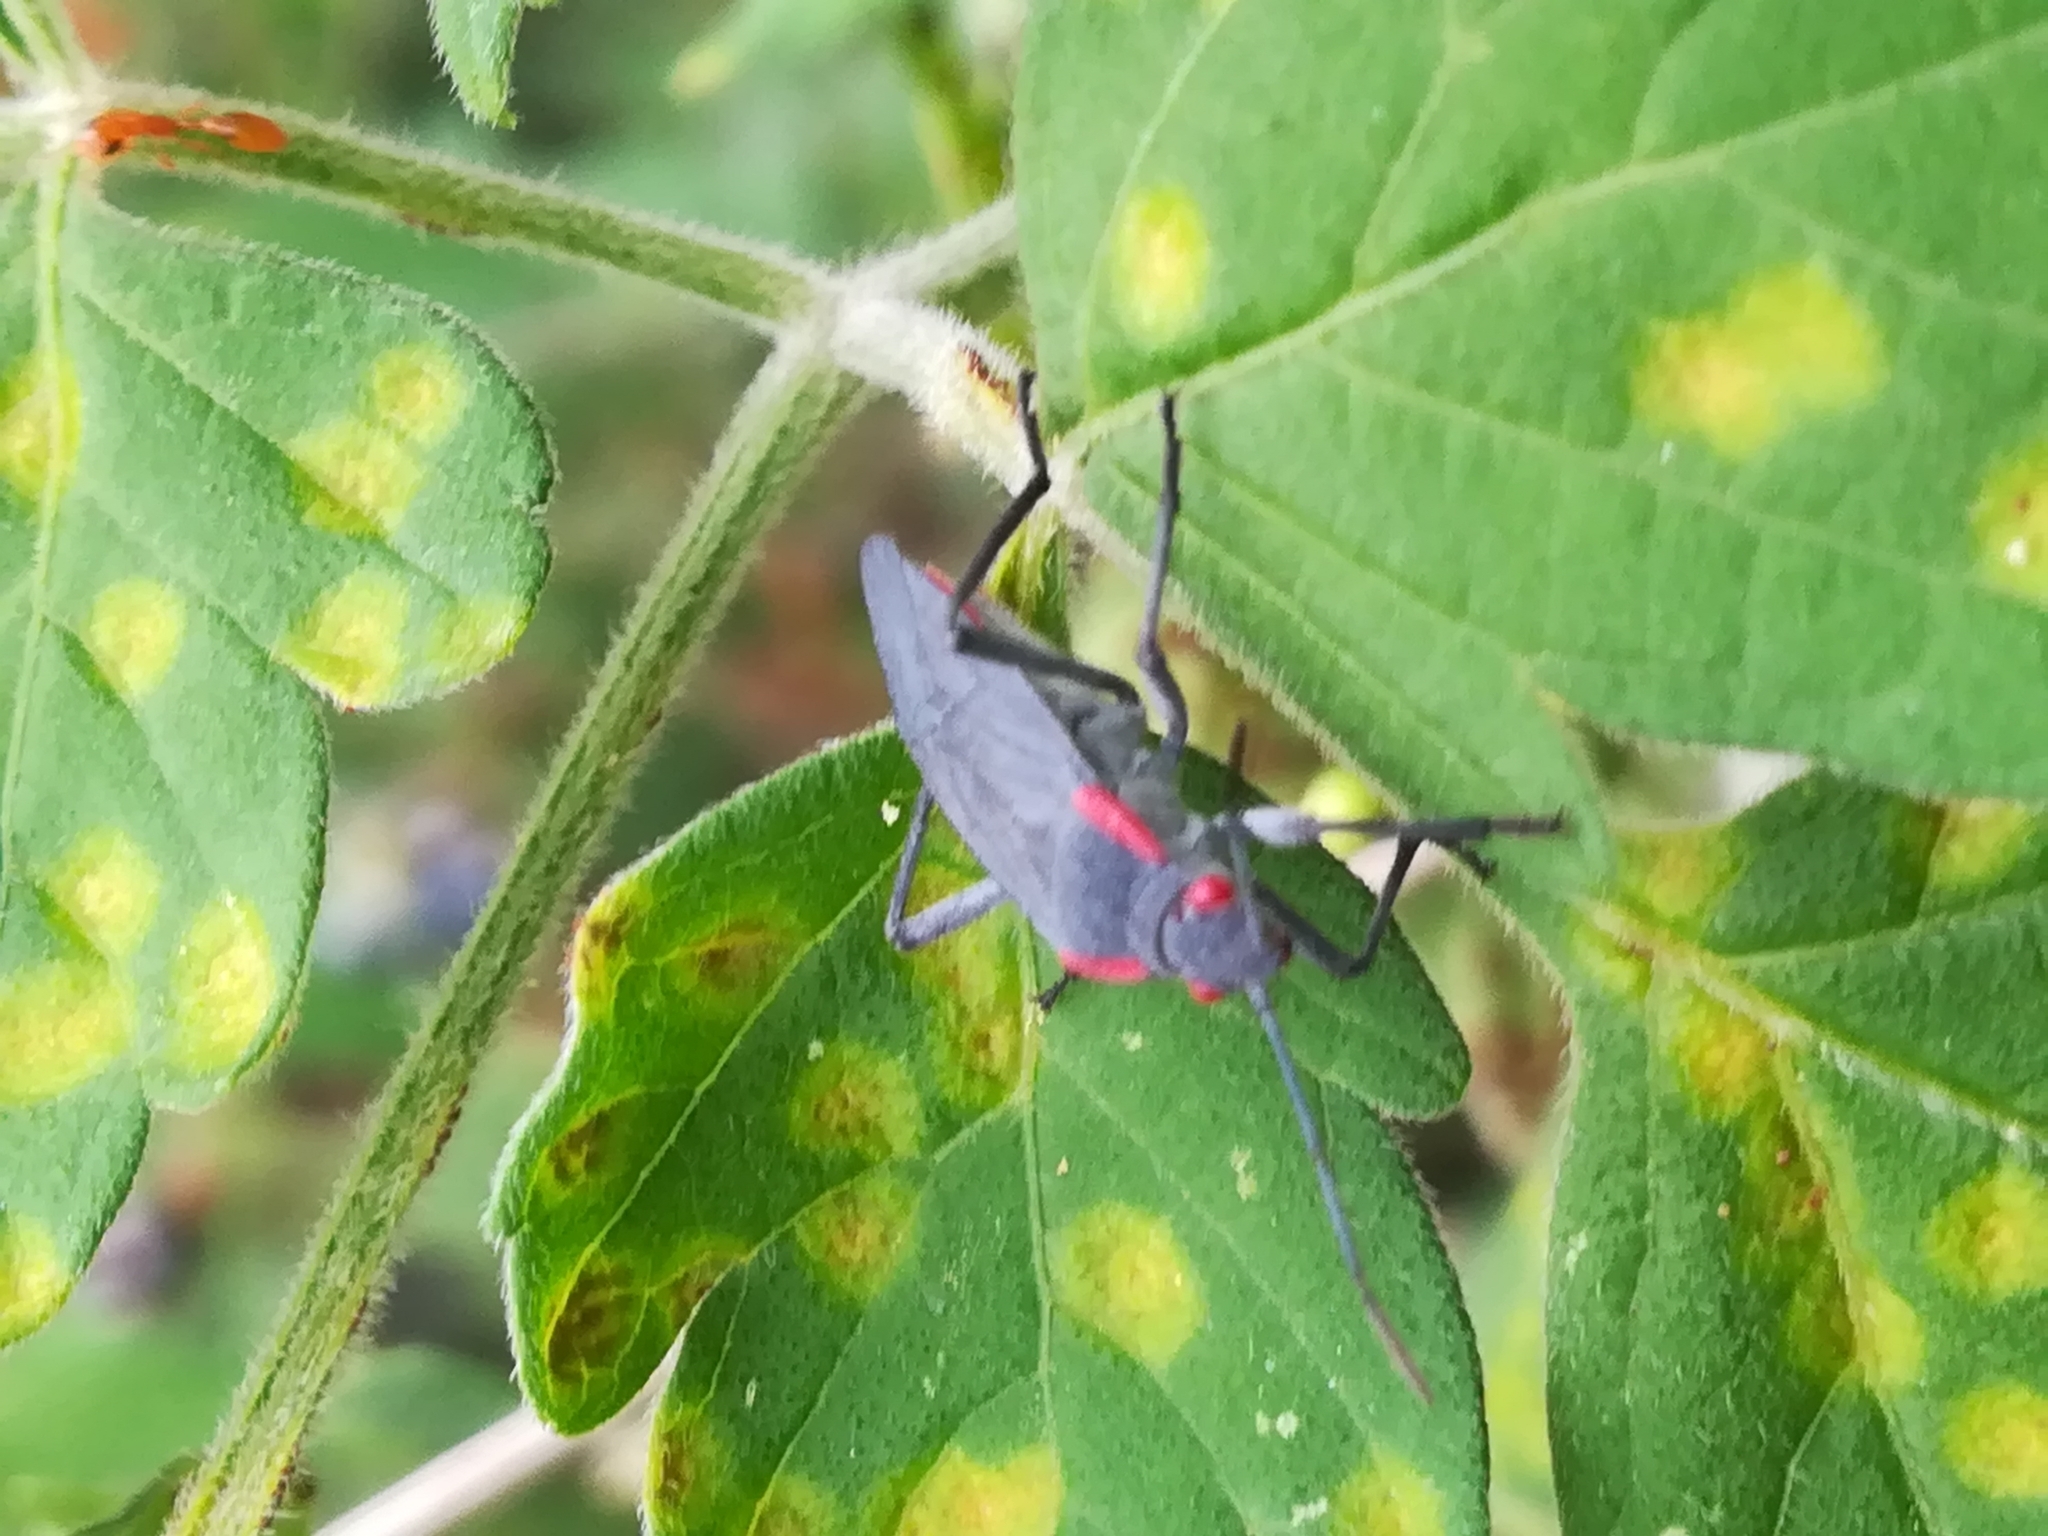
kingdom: Animalia
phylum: Arthropoda
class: Insecta
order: Hemiptera
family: Rhopalidae
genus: Jadera
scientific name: Jadera haematoloma
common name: Red-shouldered bug
